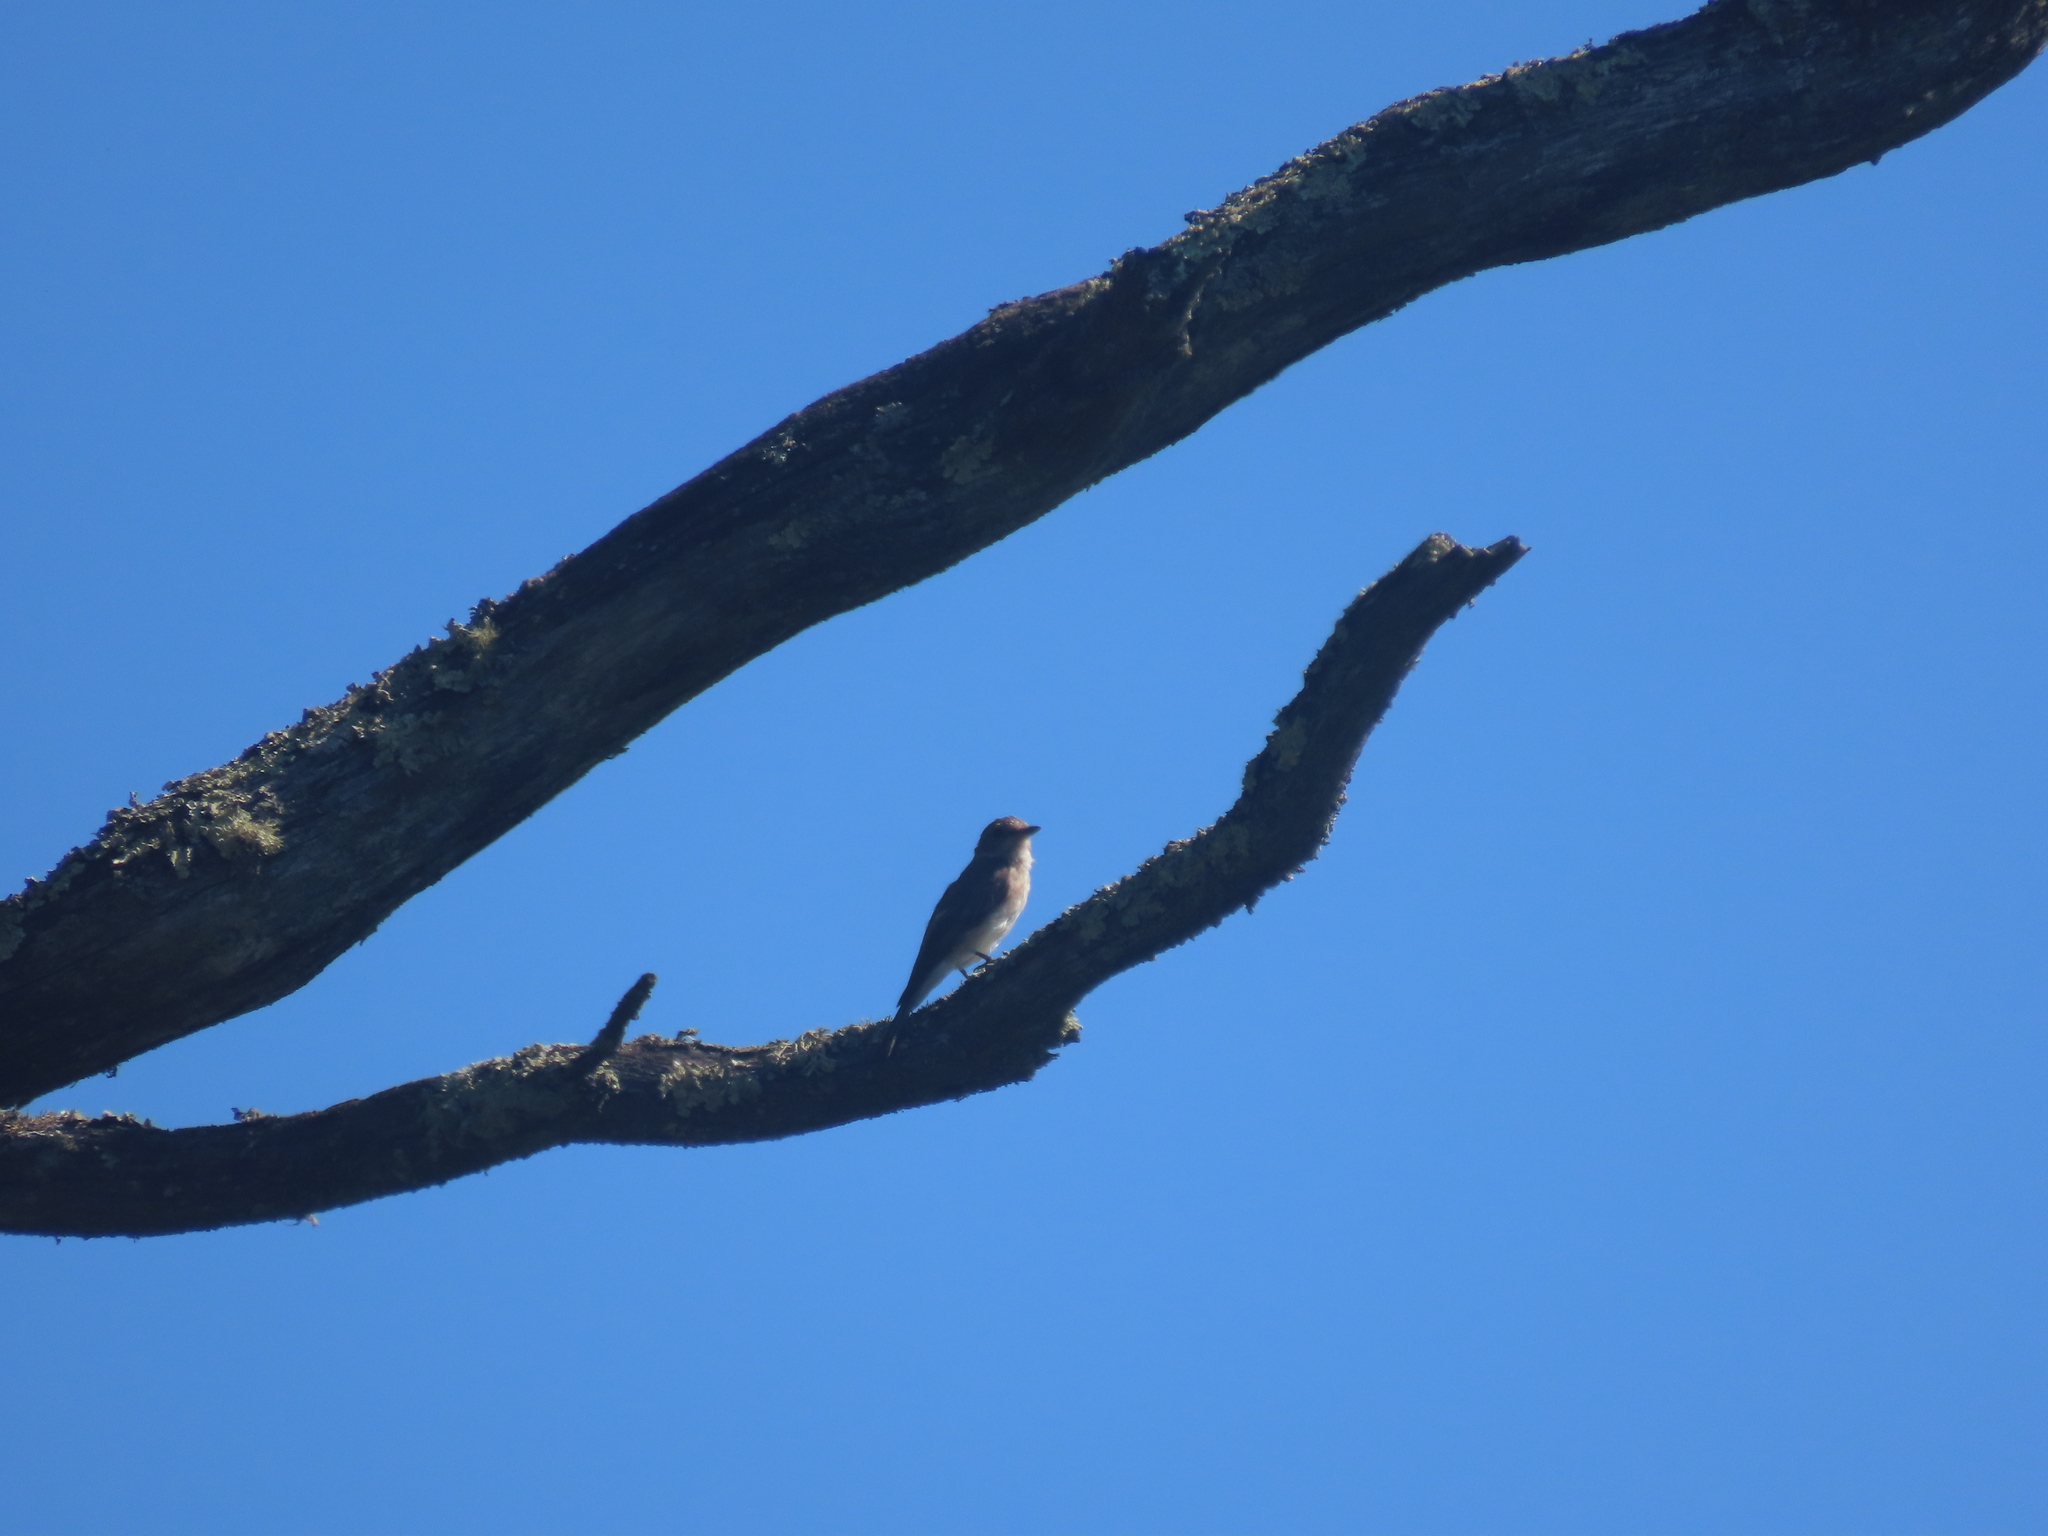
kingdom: Animalia
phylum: Chordata
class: Aves
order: Passeriformes
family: Muscicapidae
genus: Muscicapa
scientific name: Muscicapa striata
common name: Spotted flycatcher
